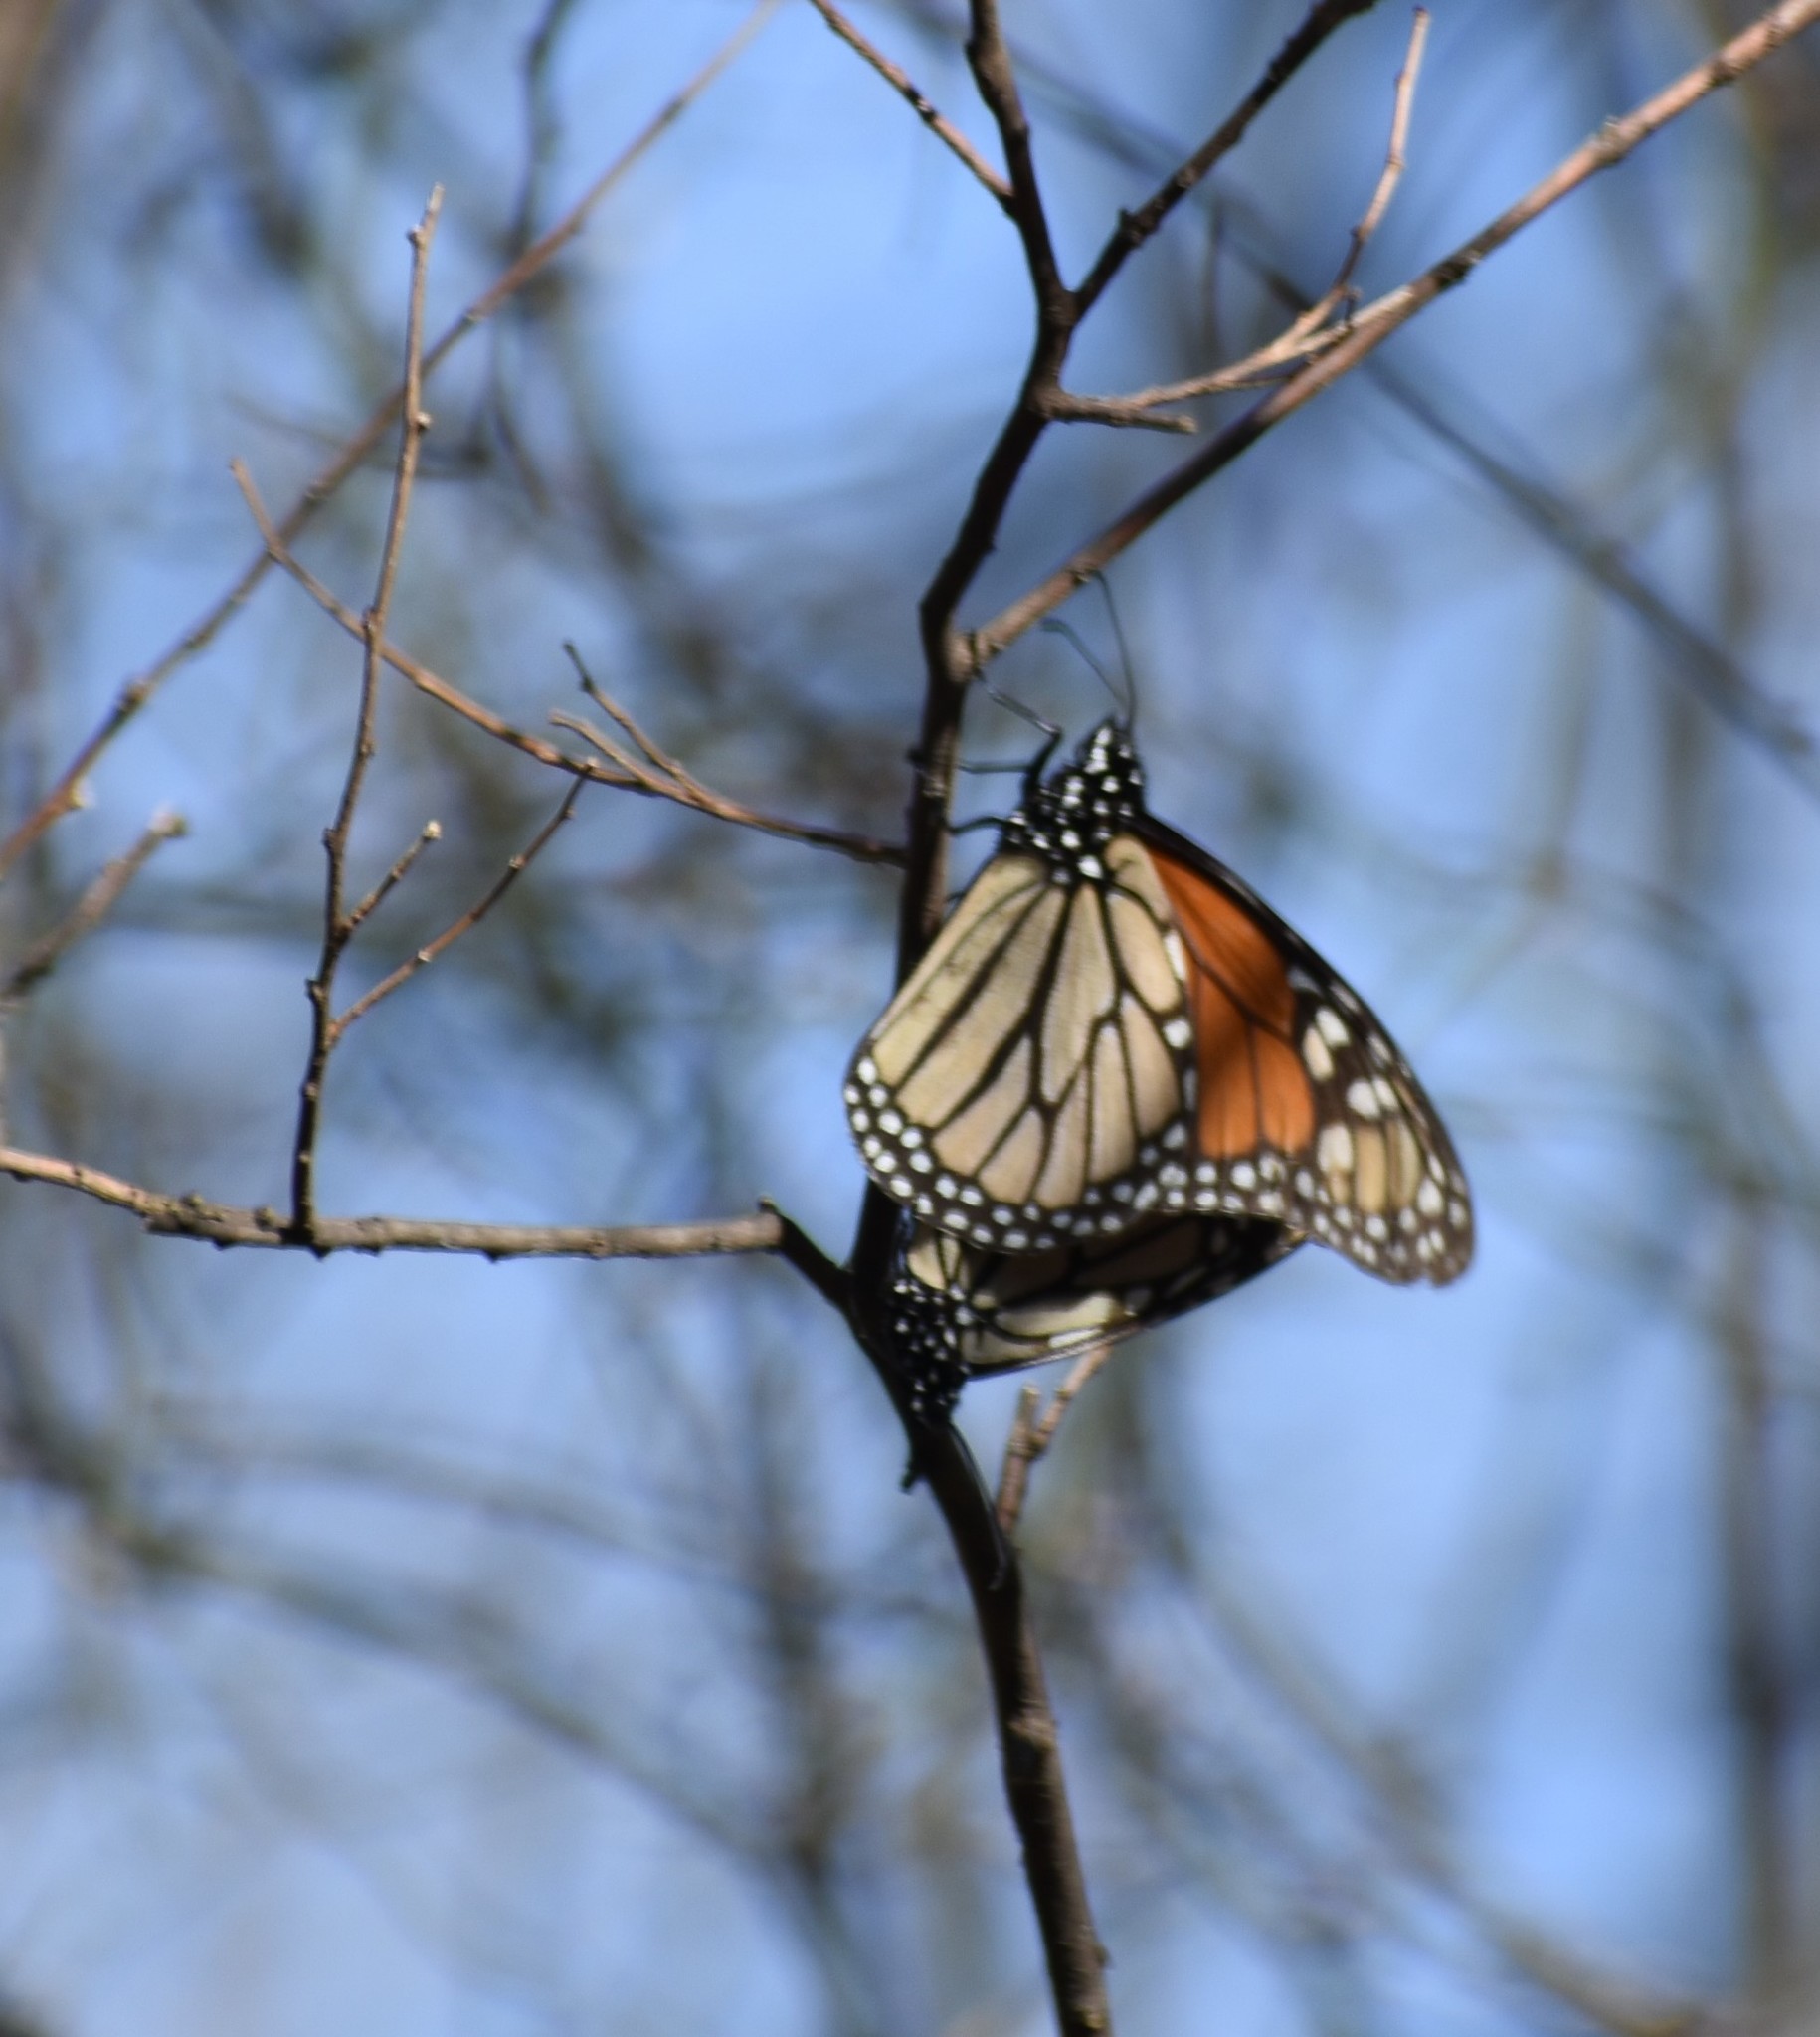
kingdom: Animalia
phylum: Arthropoda
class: Insecta
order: Lepidoptera
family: Nymphalidae
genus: Danaus
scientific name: Danaus plexippus
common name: Monarch
